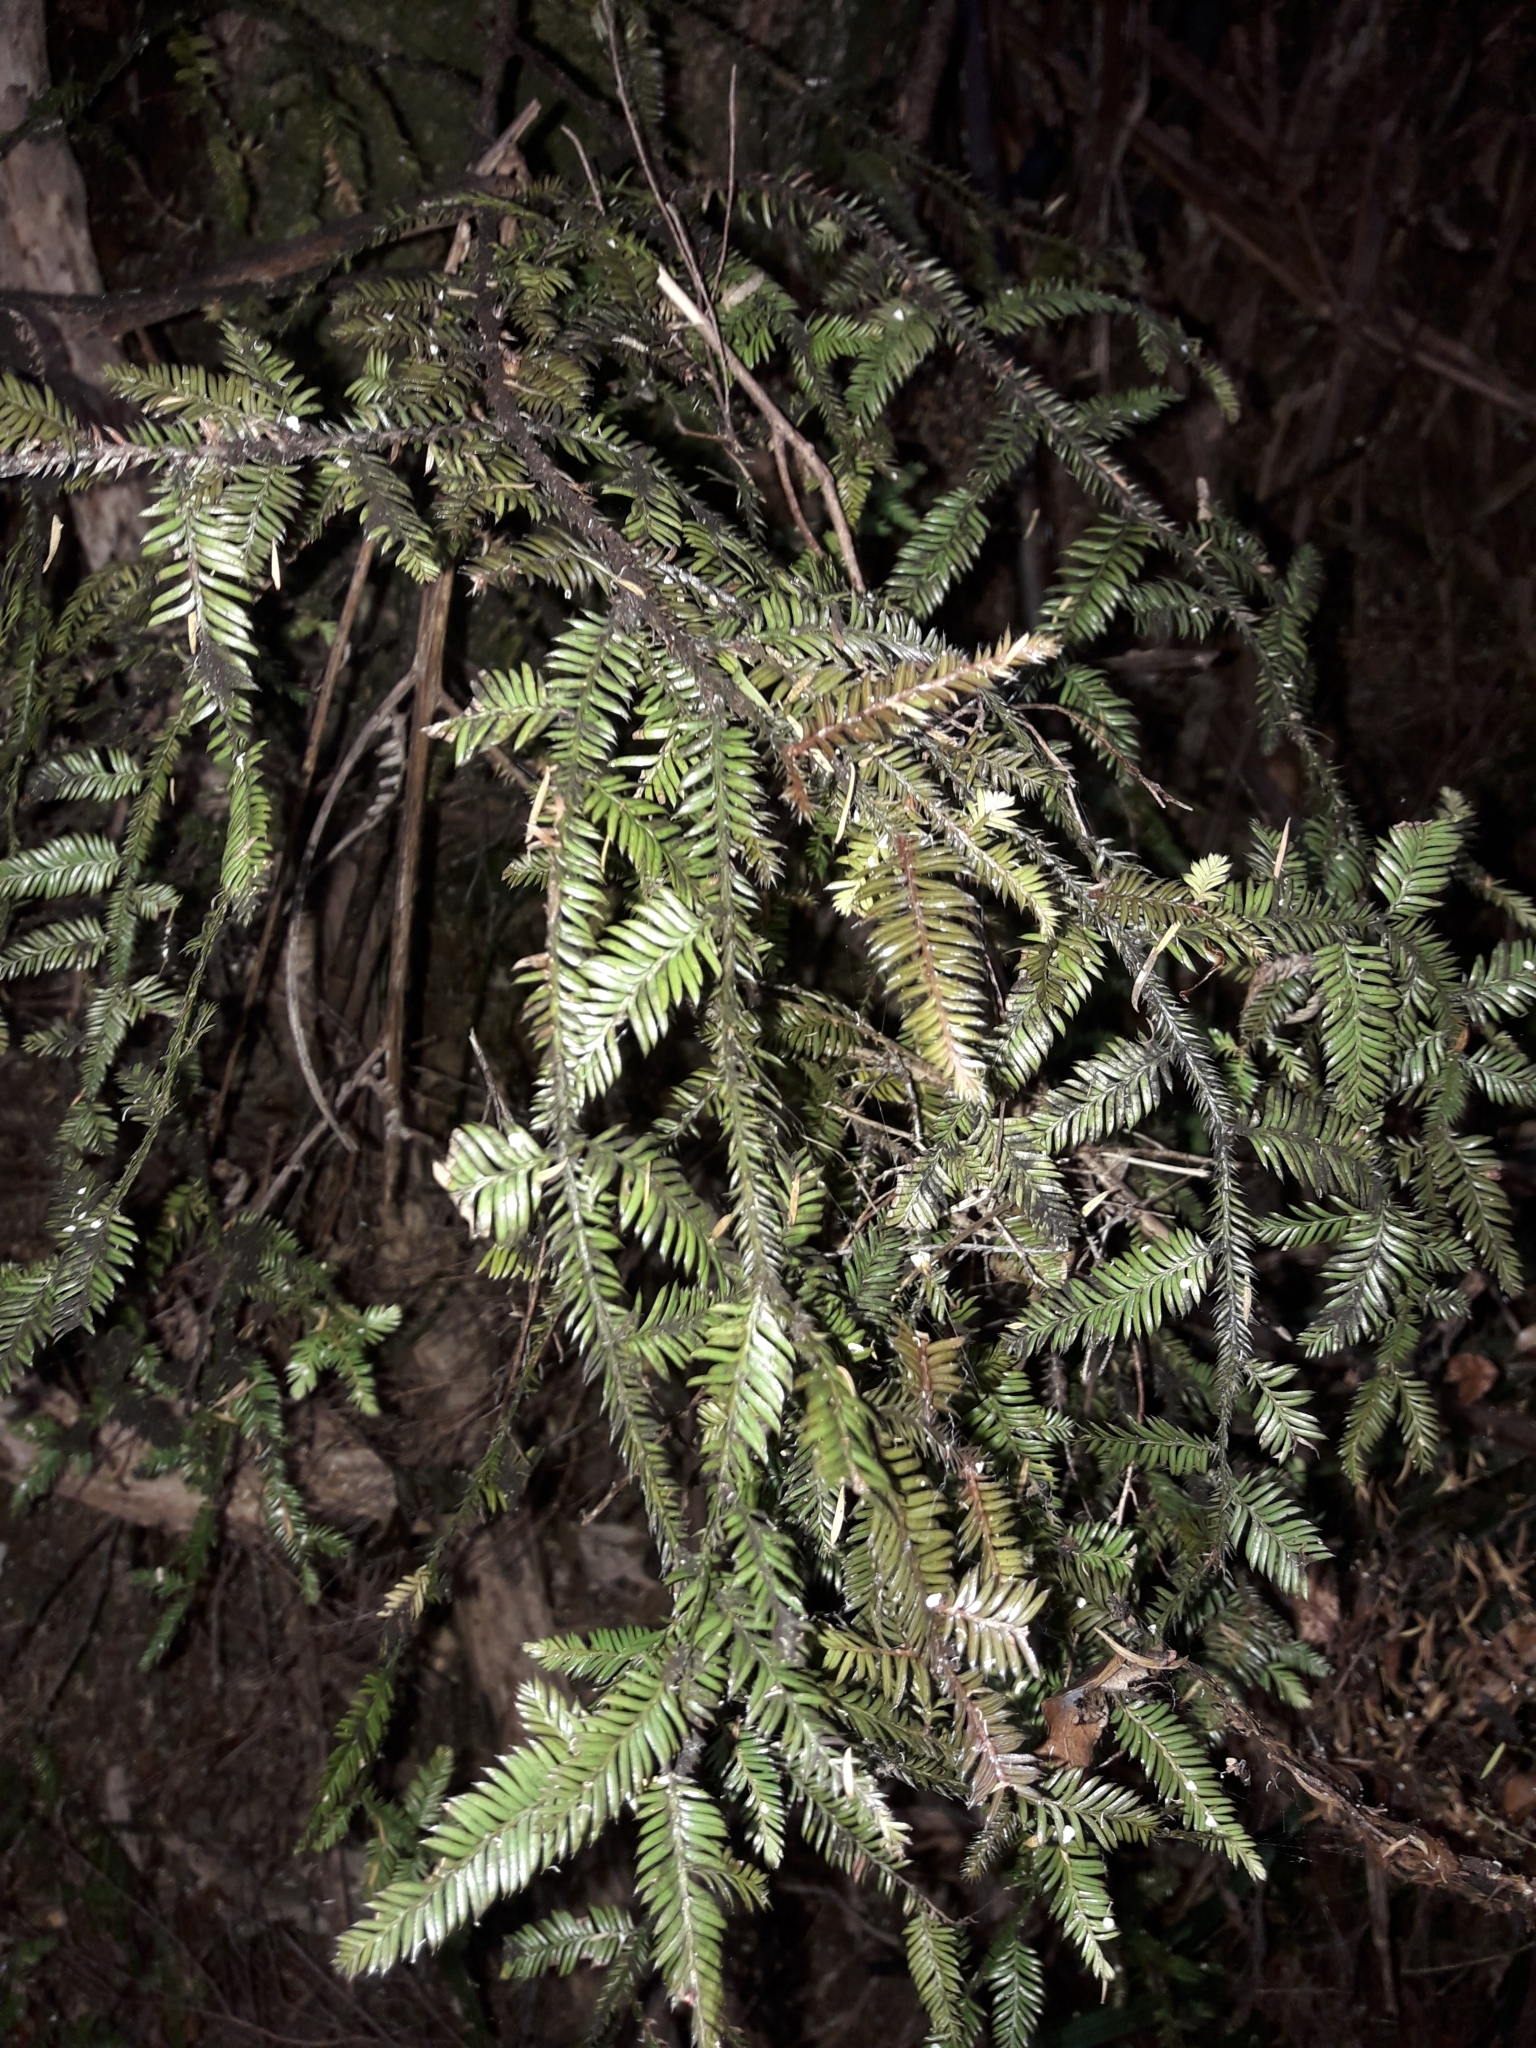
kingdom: Plantae
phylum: Tracheophyta
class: Pinopsida
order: Pinales
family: Podocarpaceae
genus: Dacrycarpus
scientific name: Dacrycarpus dacrydioides
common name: White pine
